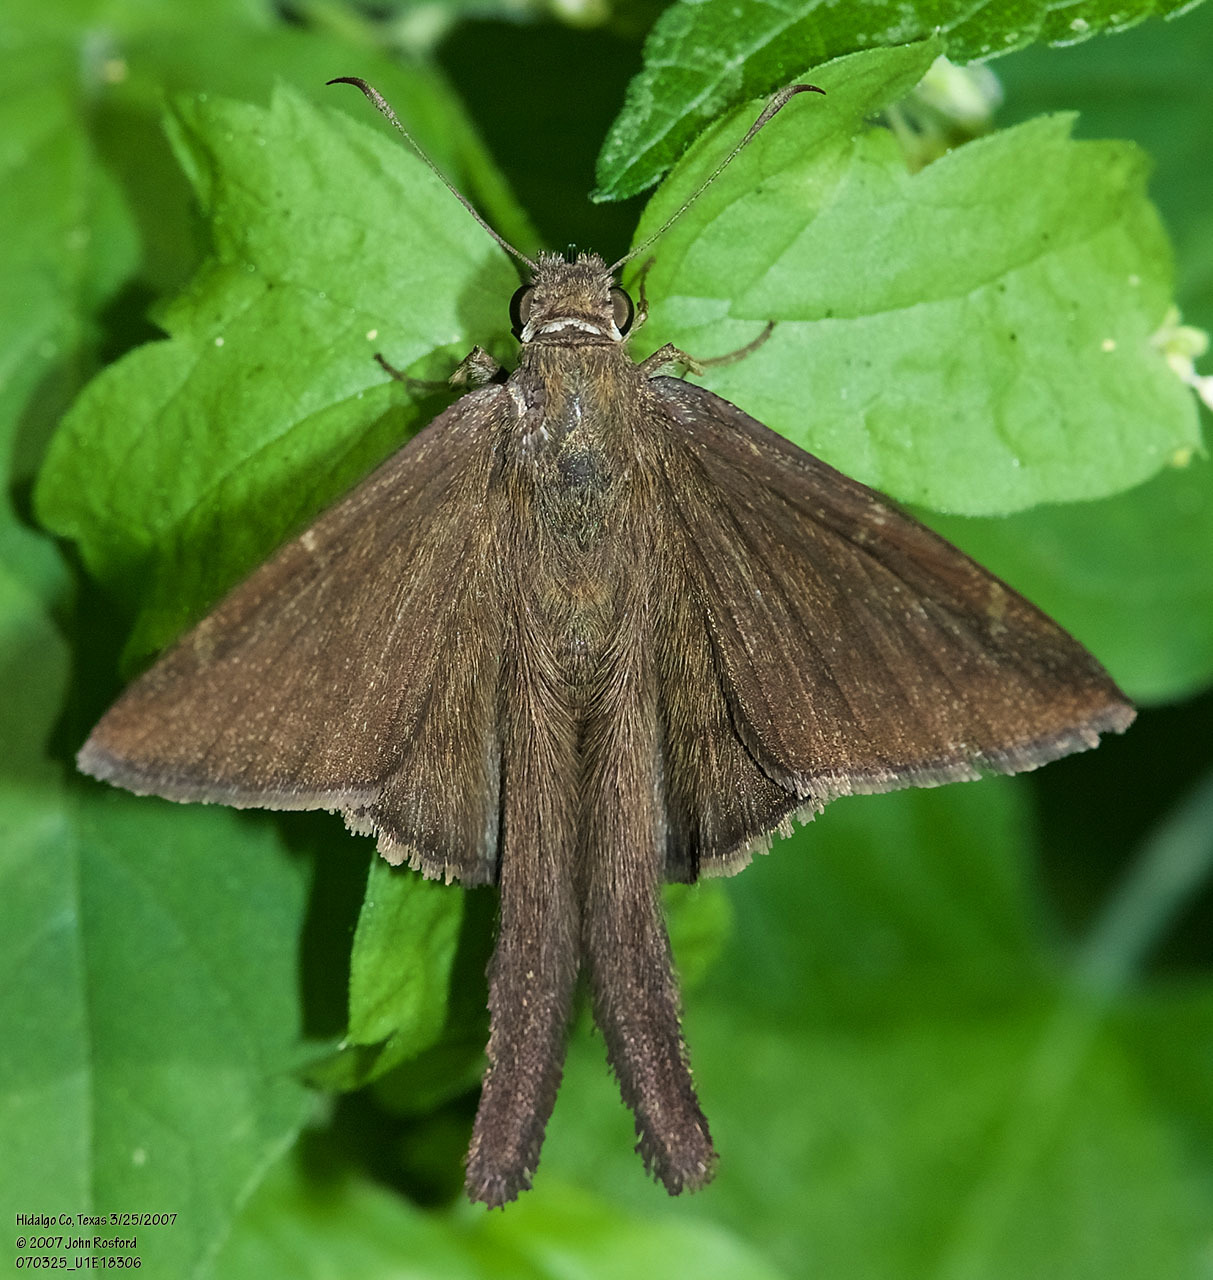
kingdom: Animalia
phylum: Arthropoda
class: Insecta
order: Lepidoptera
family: Hesperiidae
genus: Urbanus
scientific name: Urbanus procne
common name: Brown longtail
